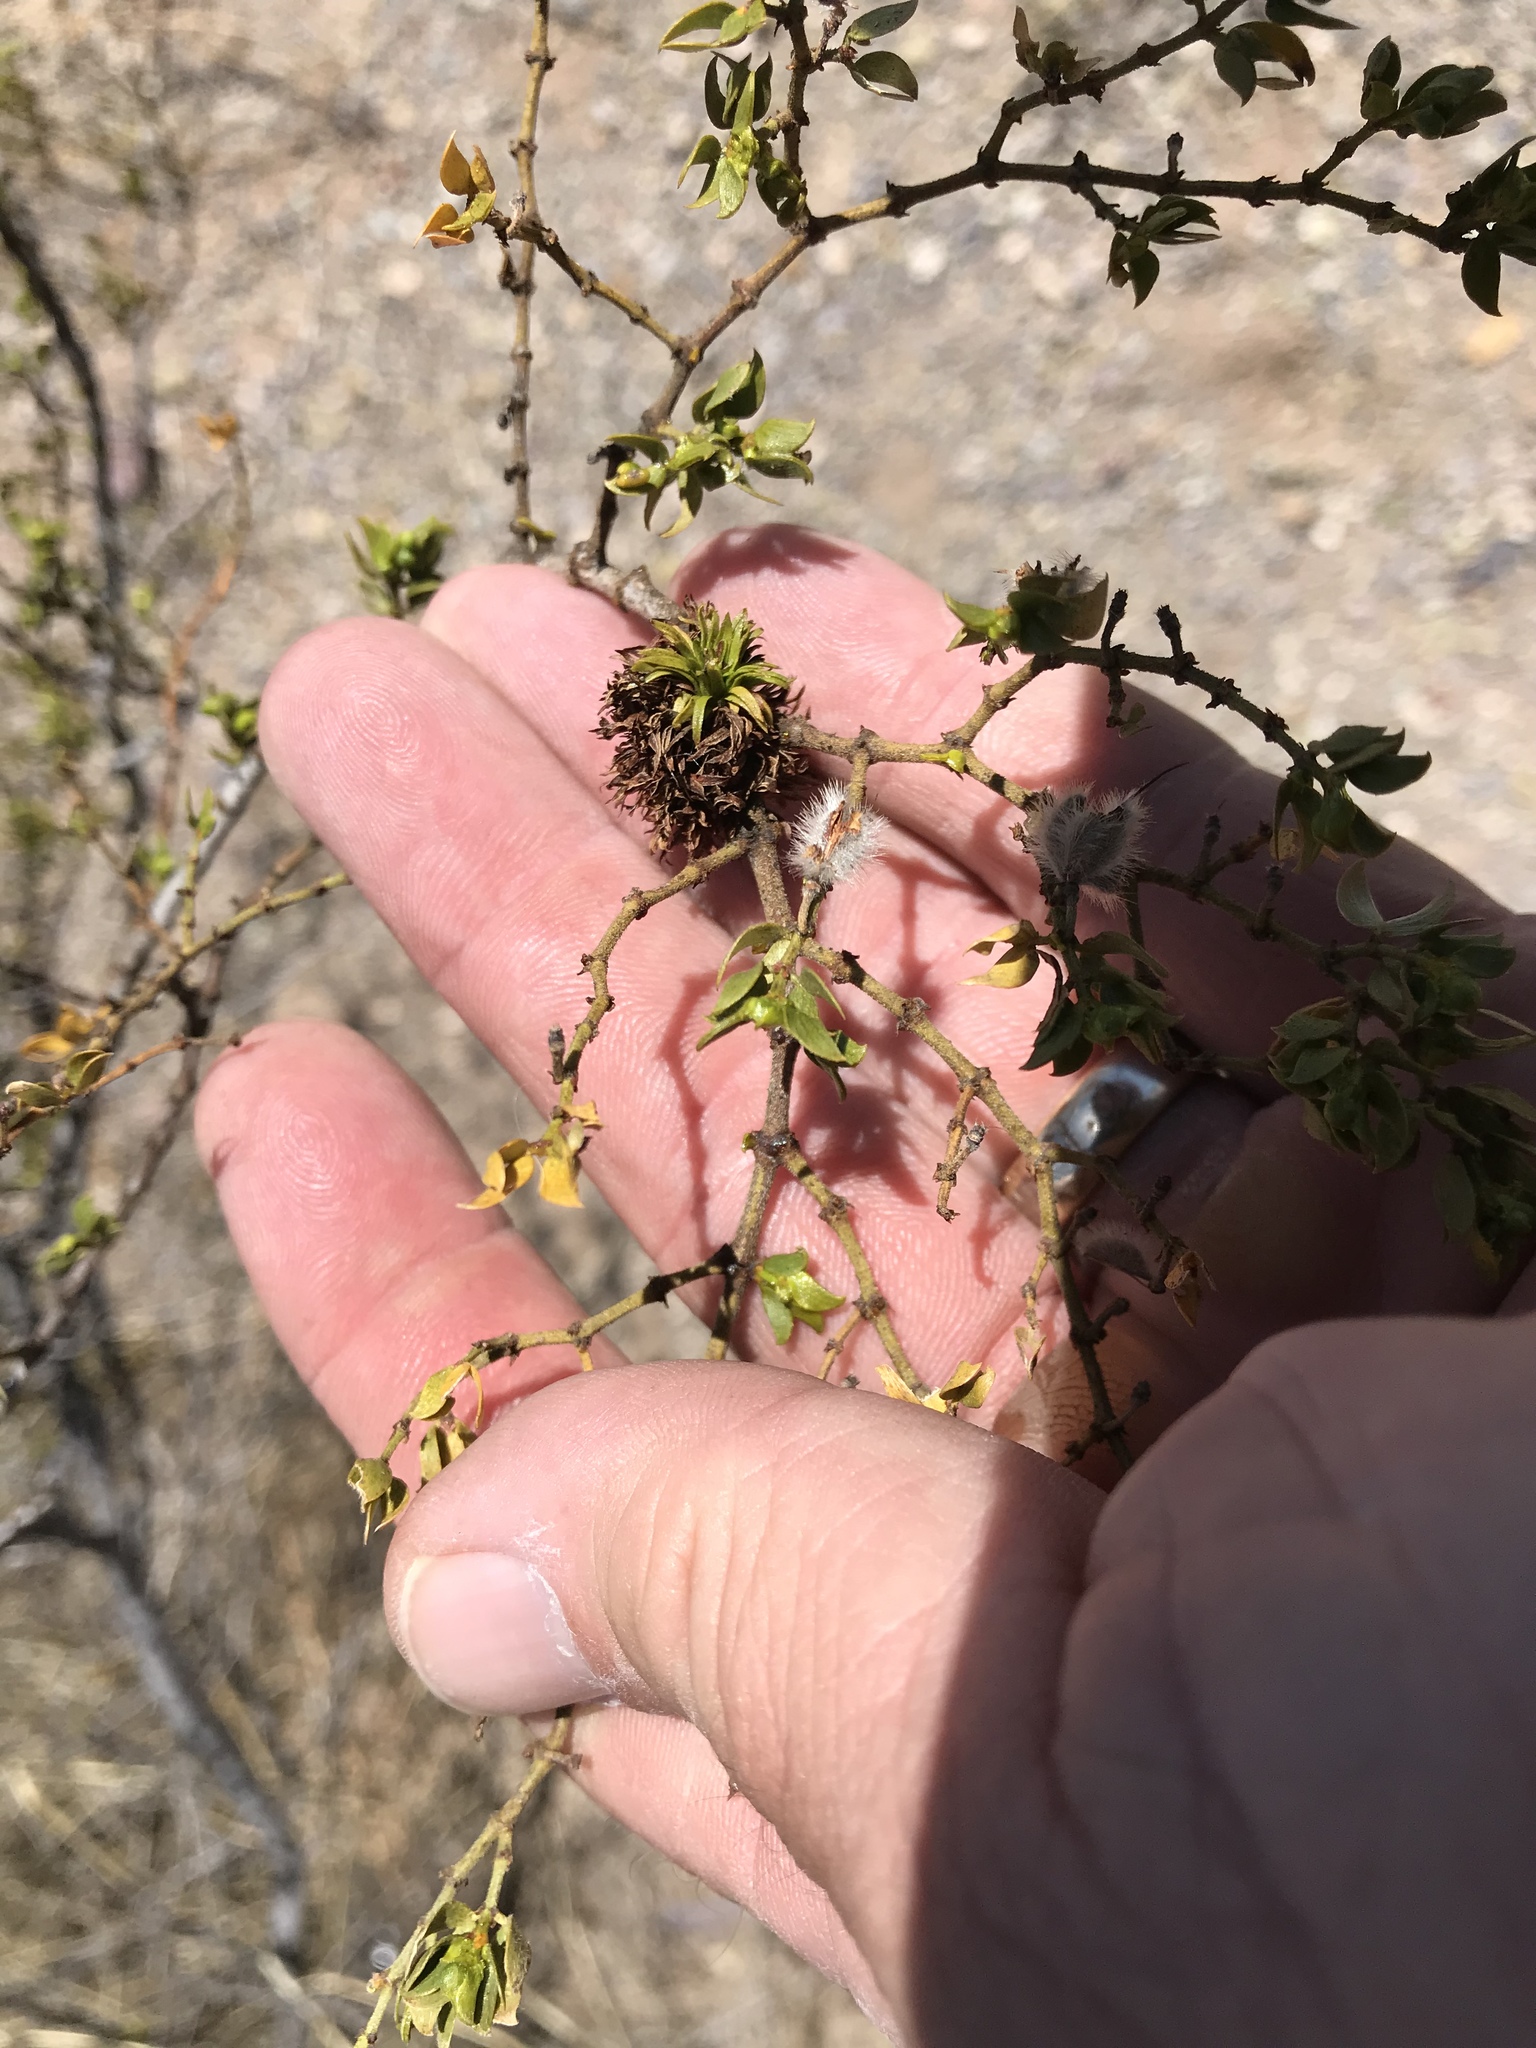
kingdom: Animalia
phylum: Arthropoda
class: Insecta
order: Diptera
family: Cecidomyiidae
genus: Asphondylia
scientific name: Asphondylia auripila
